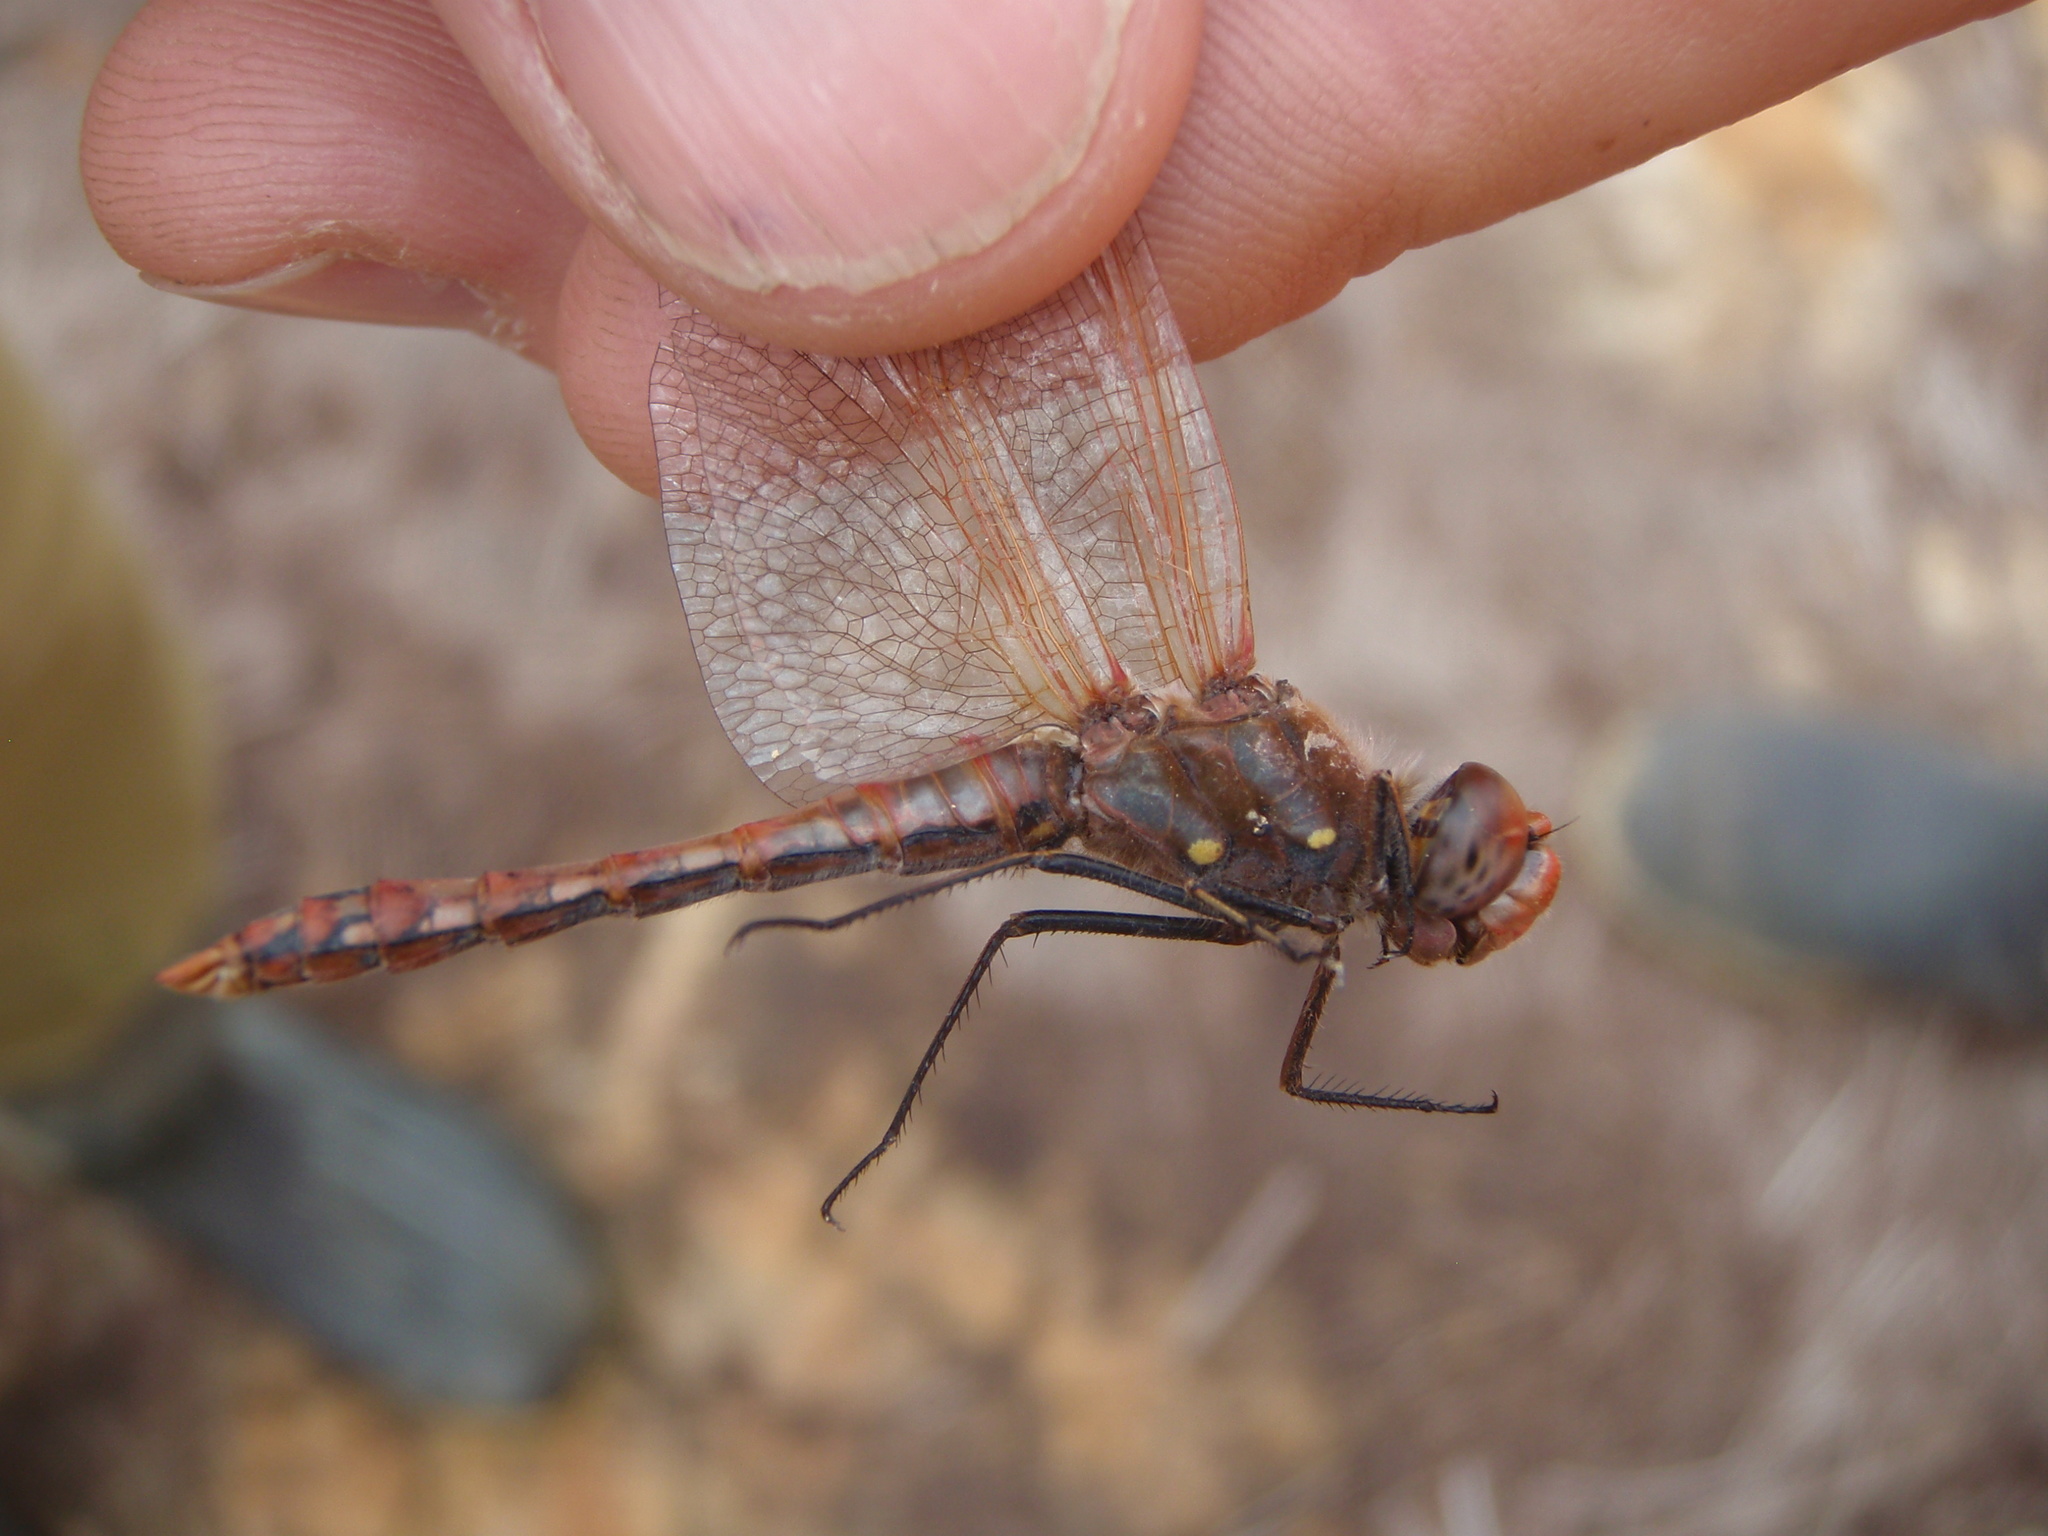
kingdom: Animalia
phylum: Arthropoda
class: Insecta
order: Odonata
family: Libellulidae
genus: Sympetrum
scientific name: Sympetrum corruptum
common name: Variegated meadowhawk
